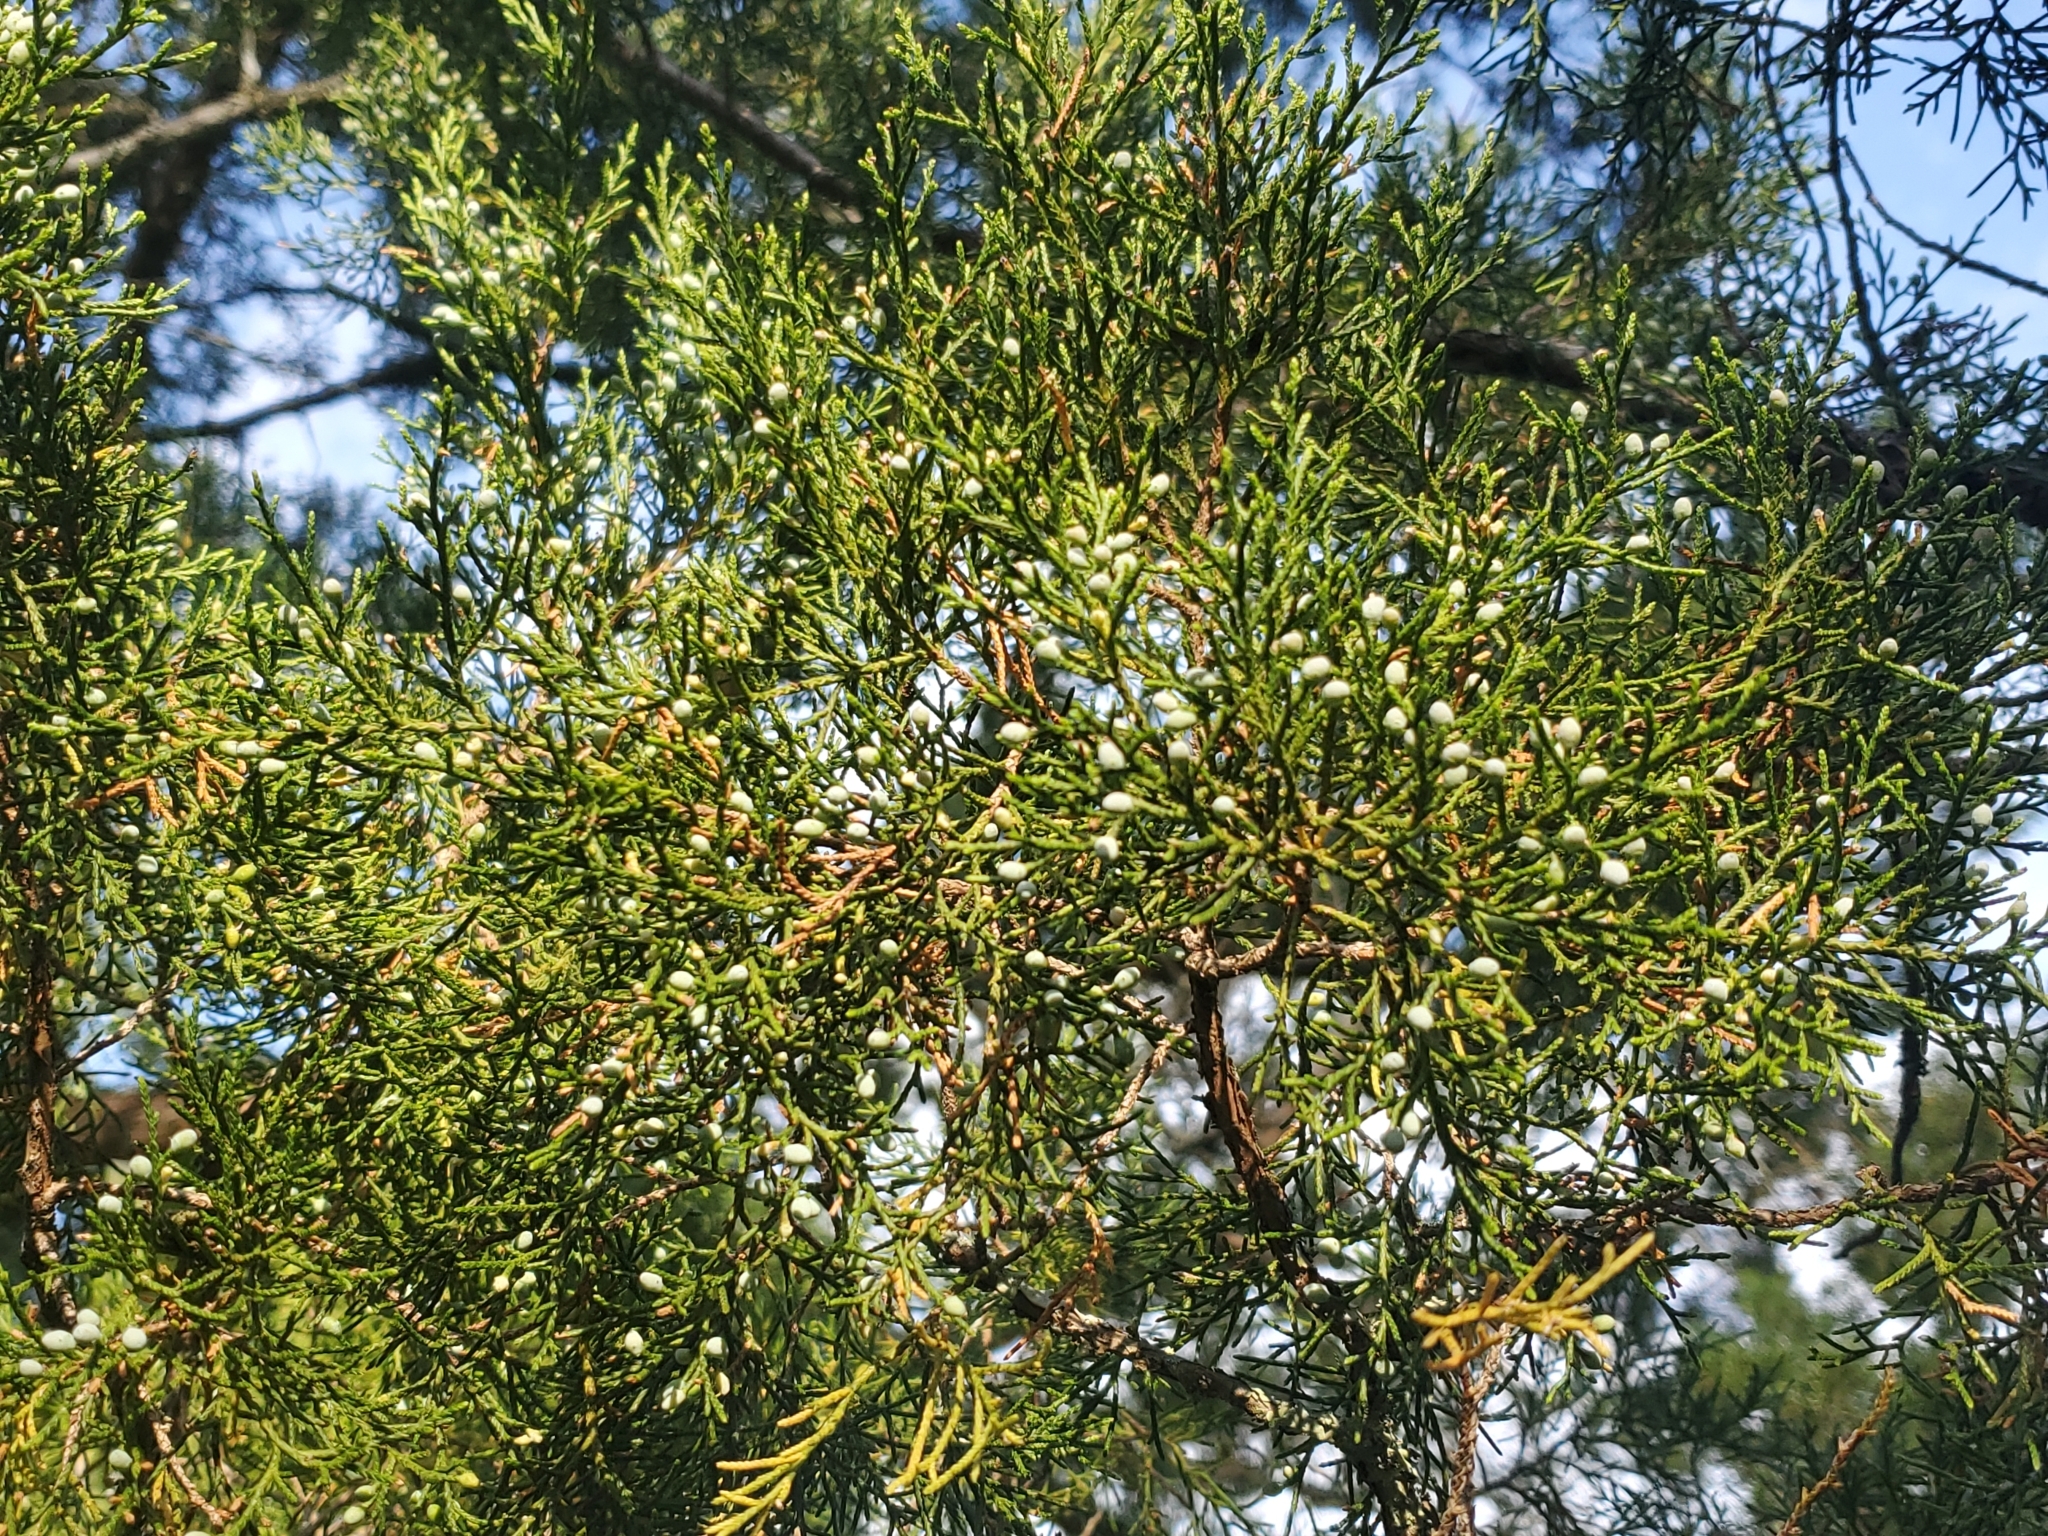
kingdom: Plantae
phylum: Tracheophyta
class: Pinopsida
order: Pinales
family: Cupressaceae
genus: Juniperus
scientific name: Juniperus virginiana
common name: Red juniper
